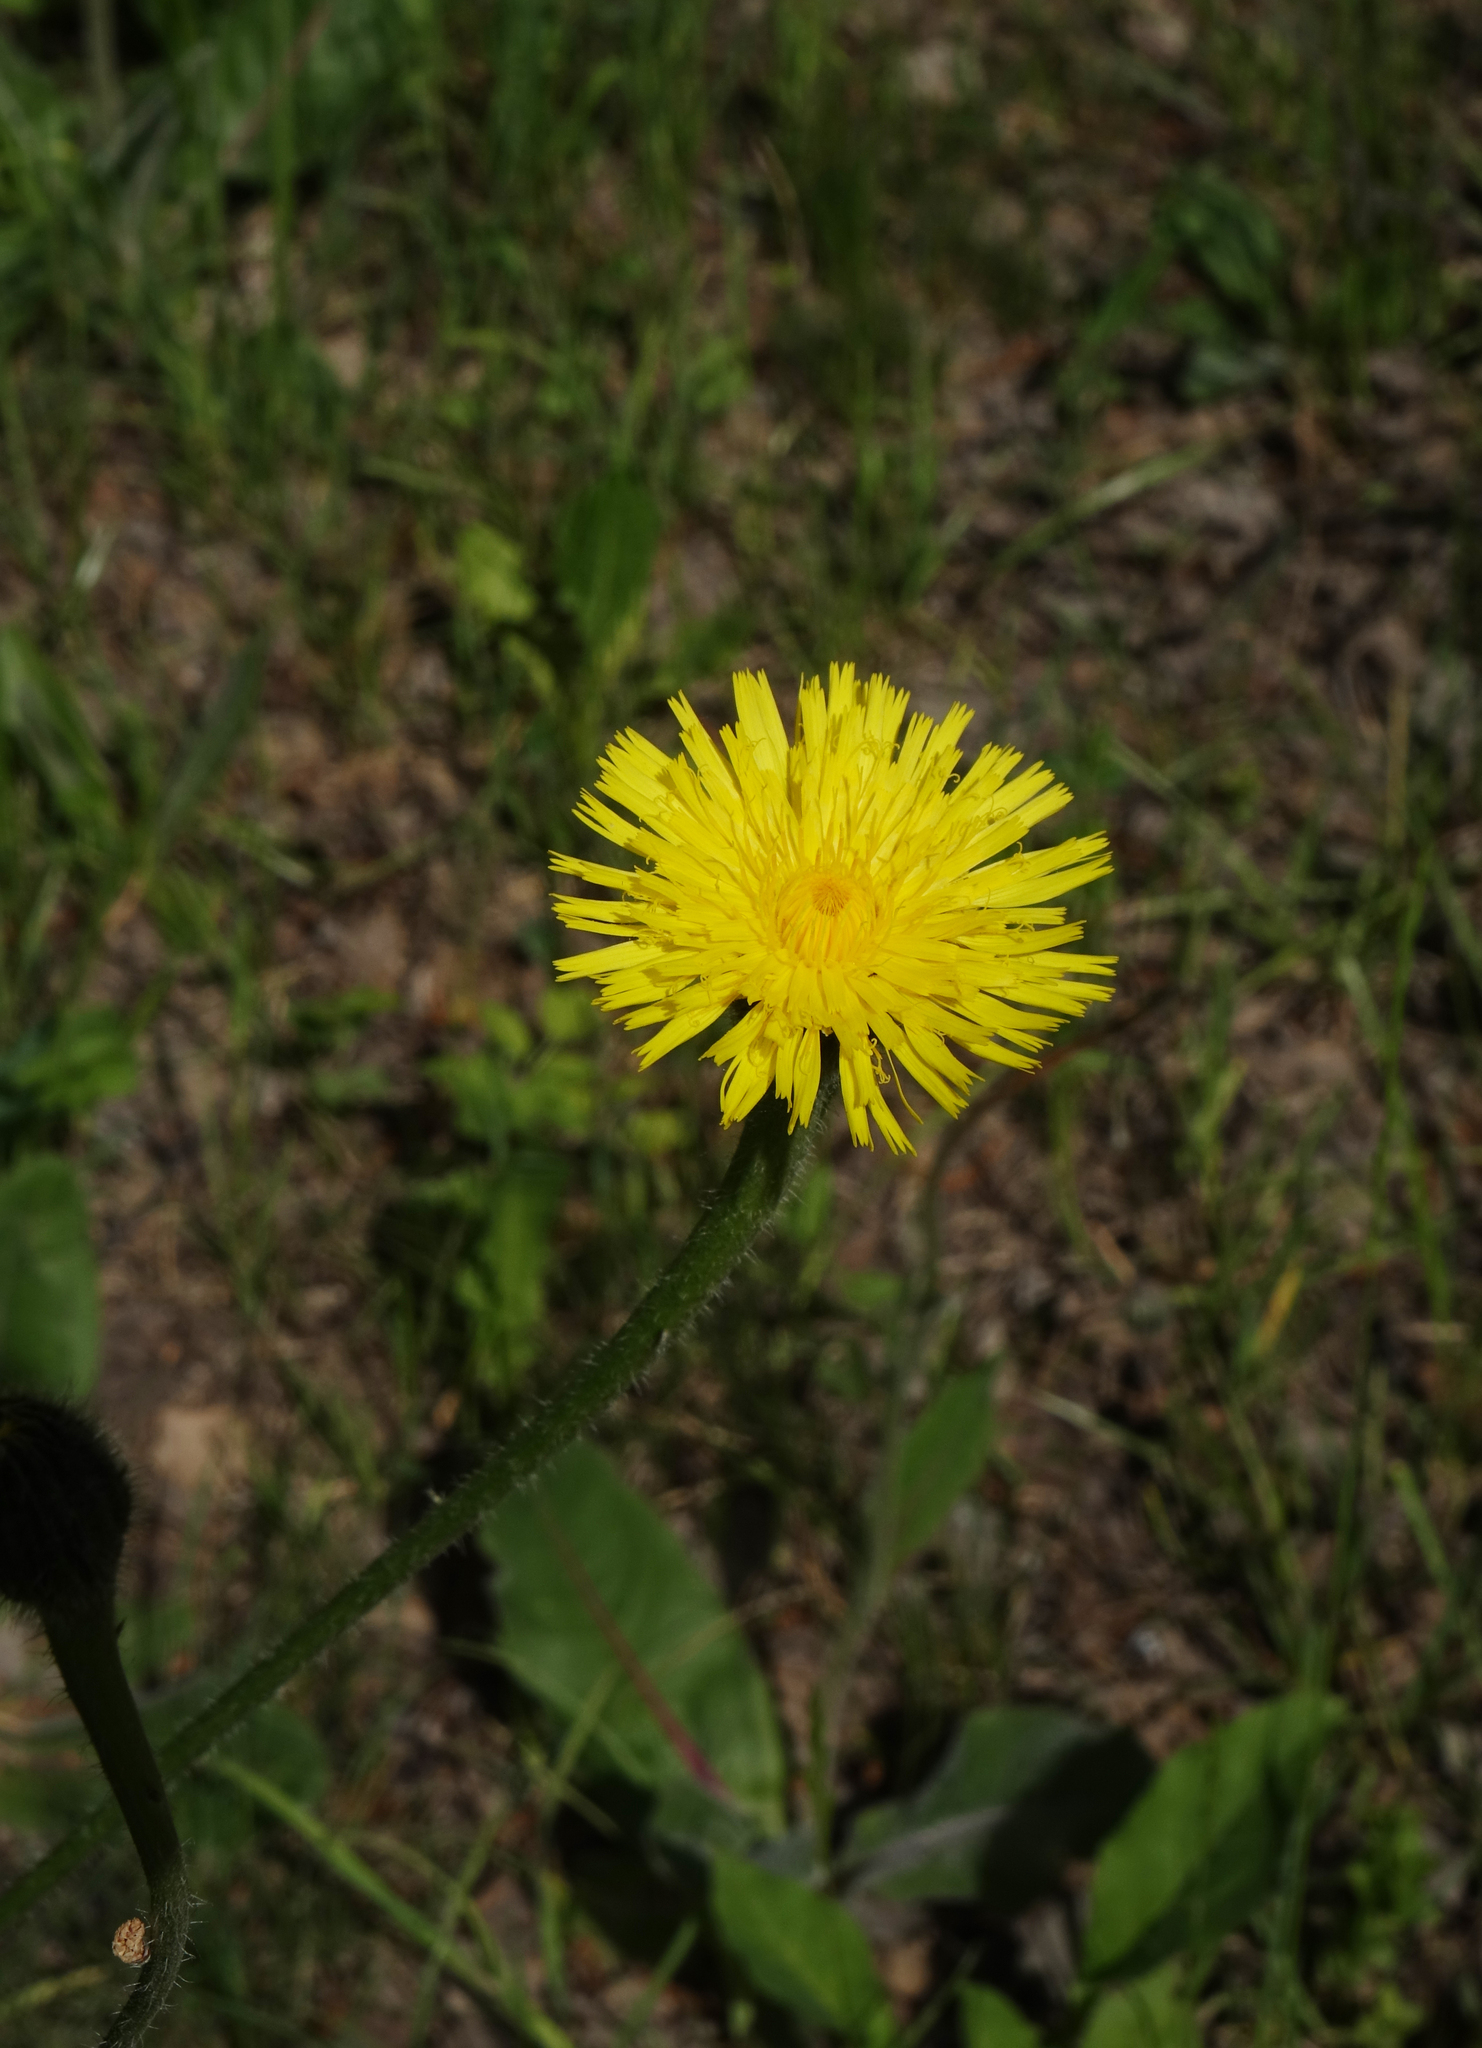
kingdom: Plantae
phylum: Tracheophyta
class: Magnoliopsida
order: Asterales
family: Asteraceae
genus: Trommsdorffia
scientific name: Trommsdorffia maculata
